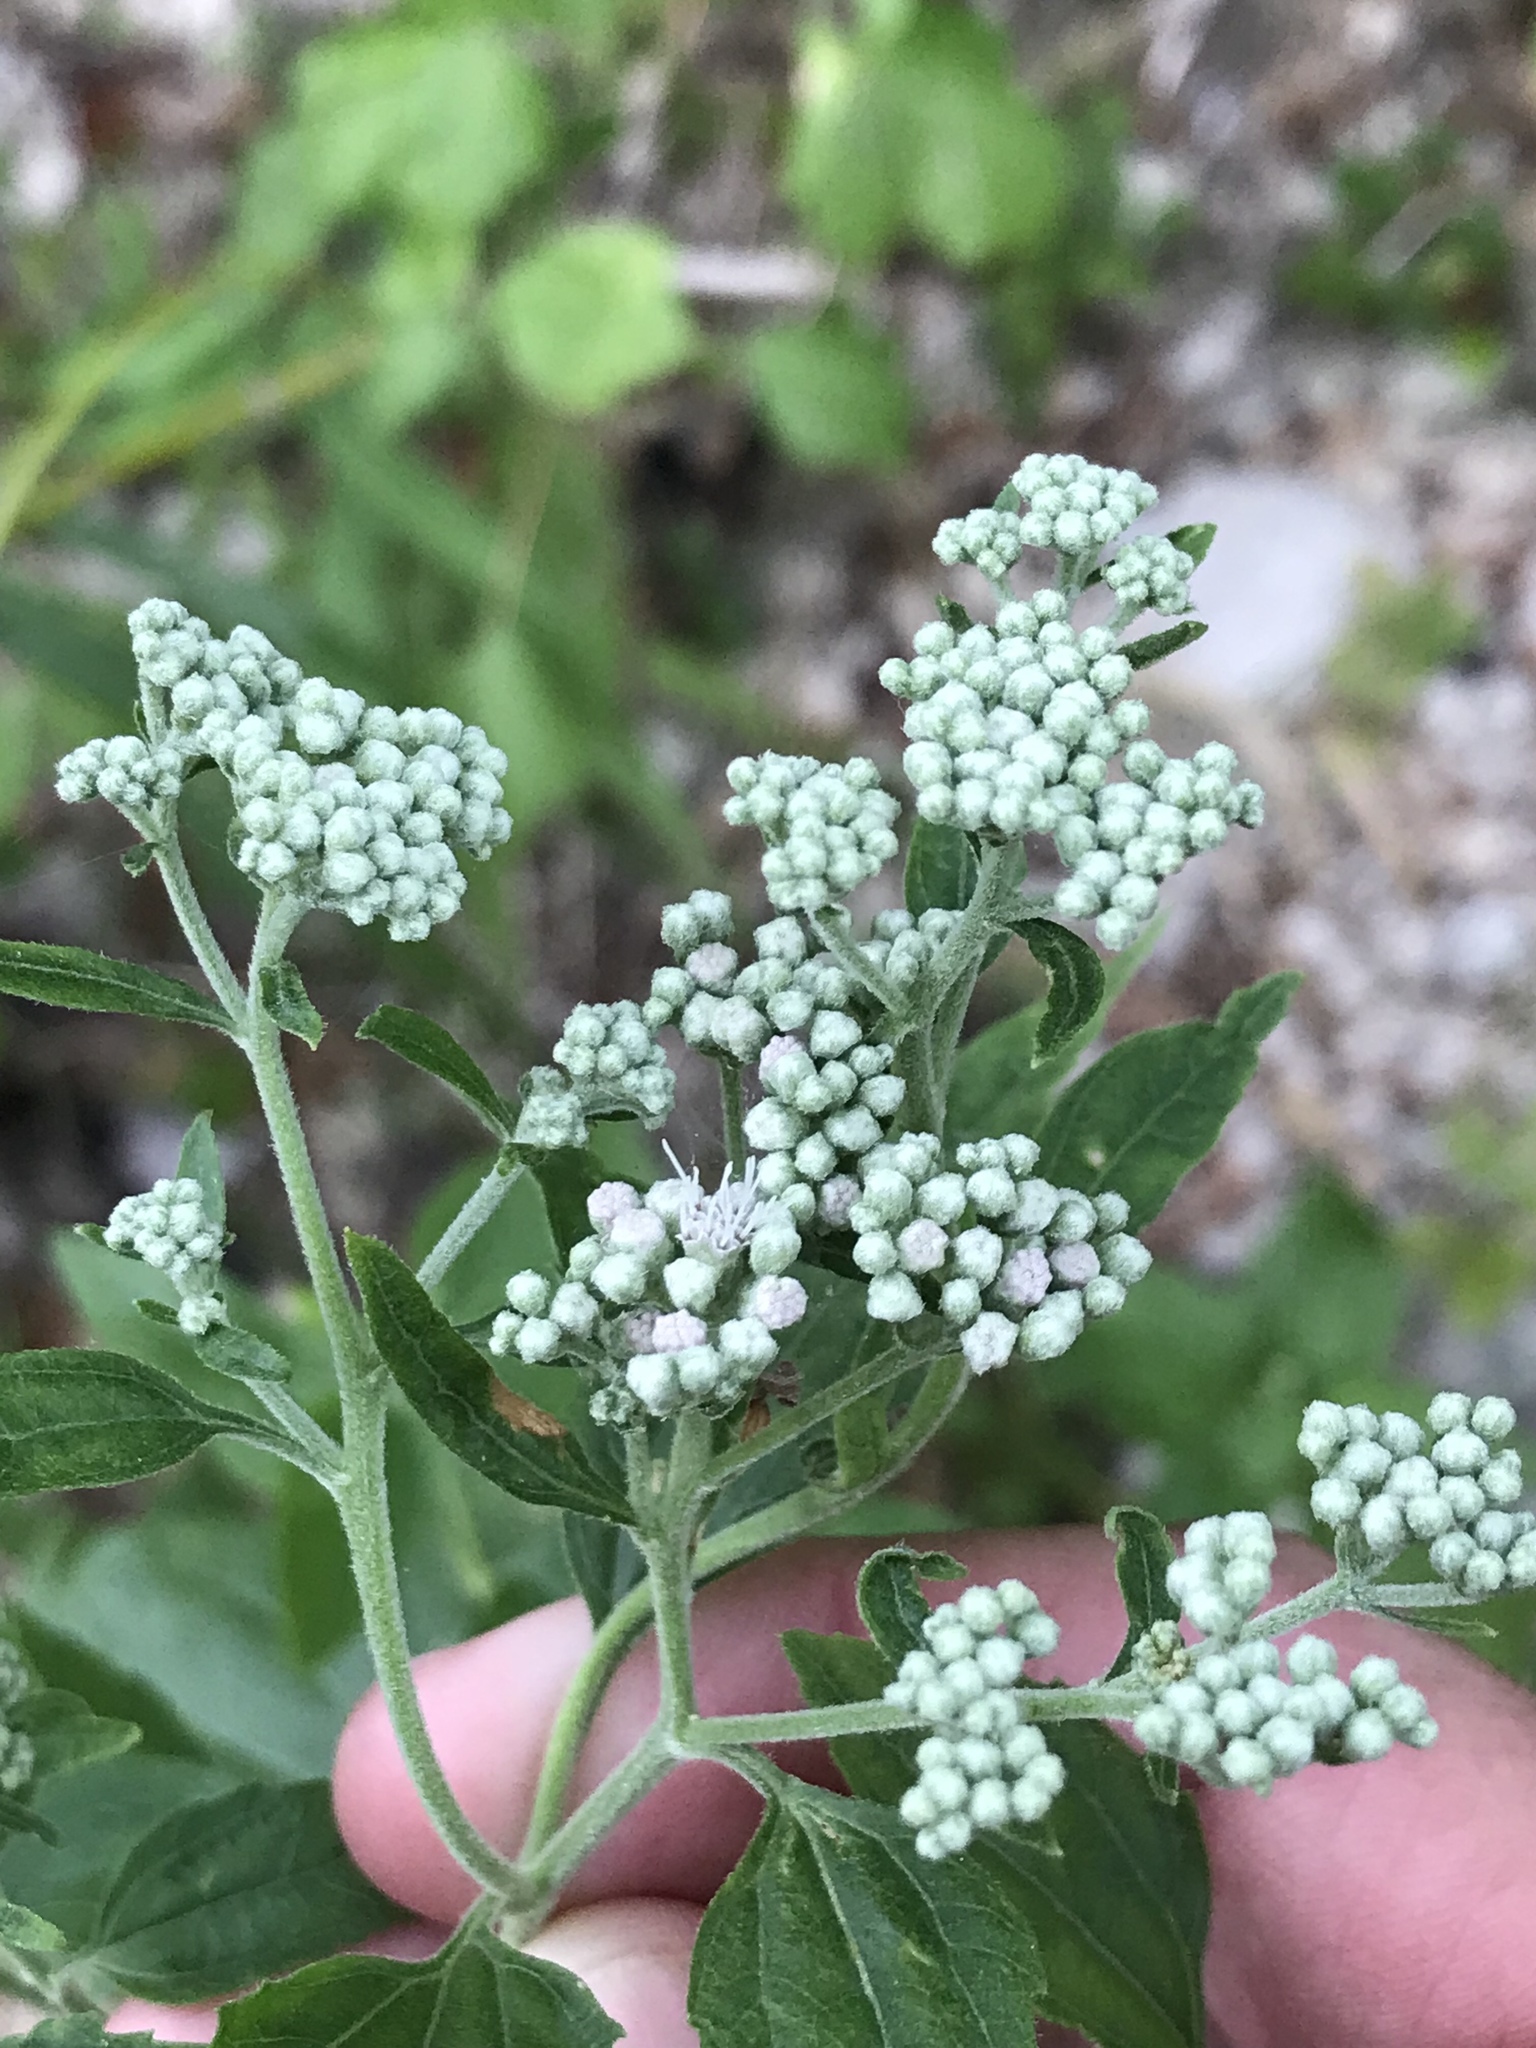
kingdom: Plantae
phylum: Tracheophyta
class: Magnoliopsida
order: Asterales
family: Asteraceae
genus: Eupatorium
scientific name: Eupatorium serotinum
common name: Late boneset
